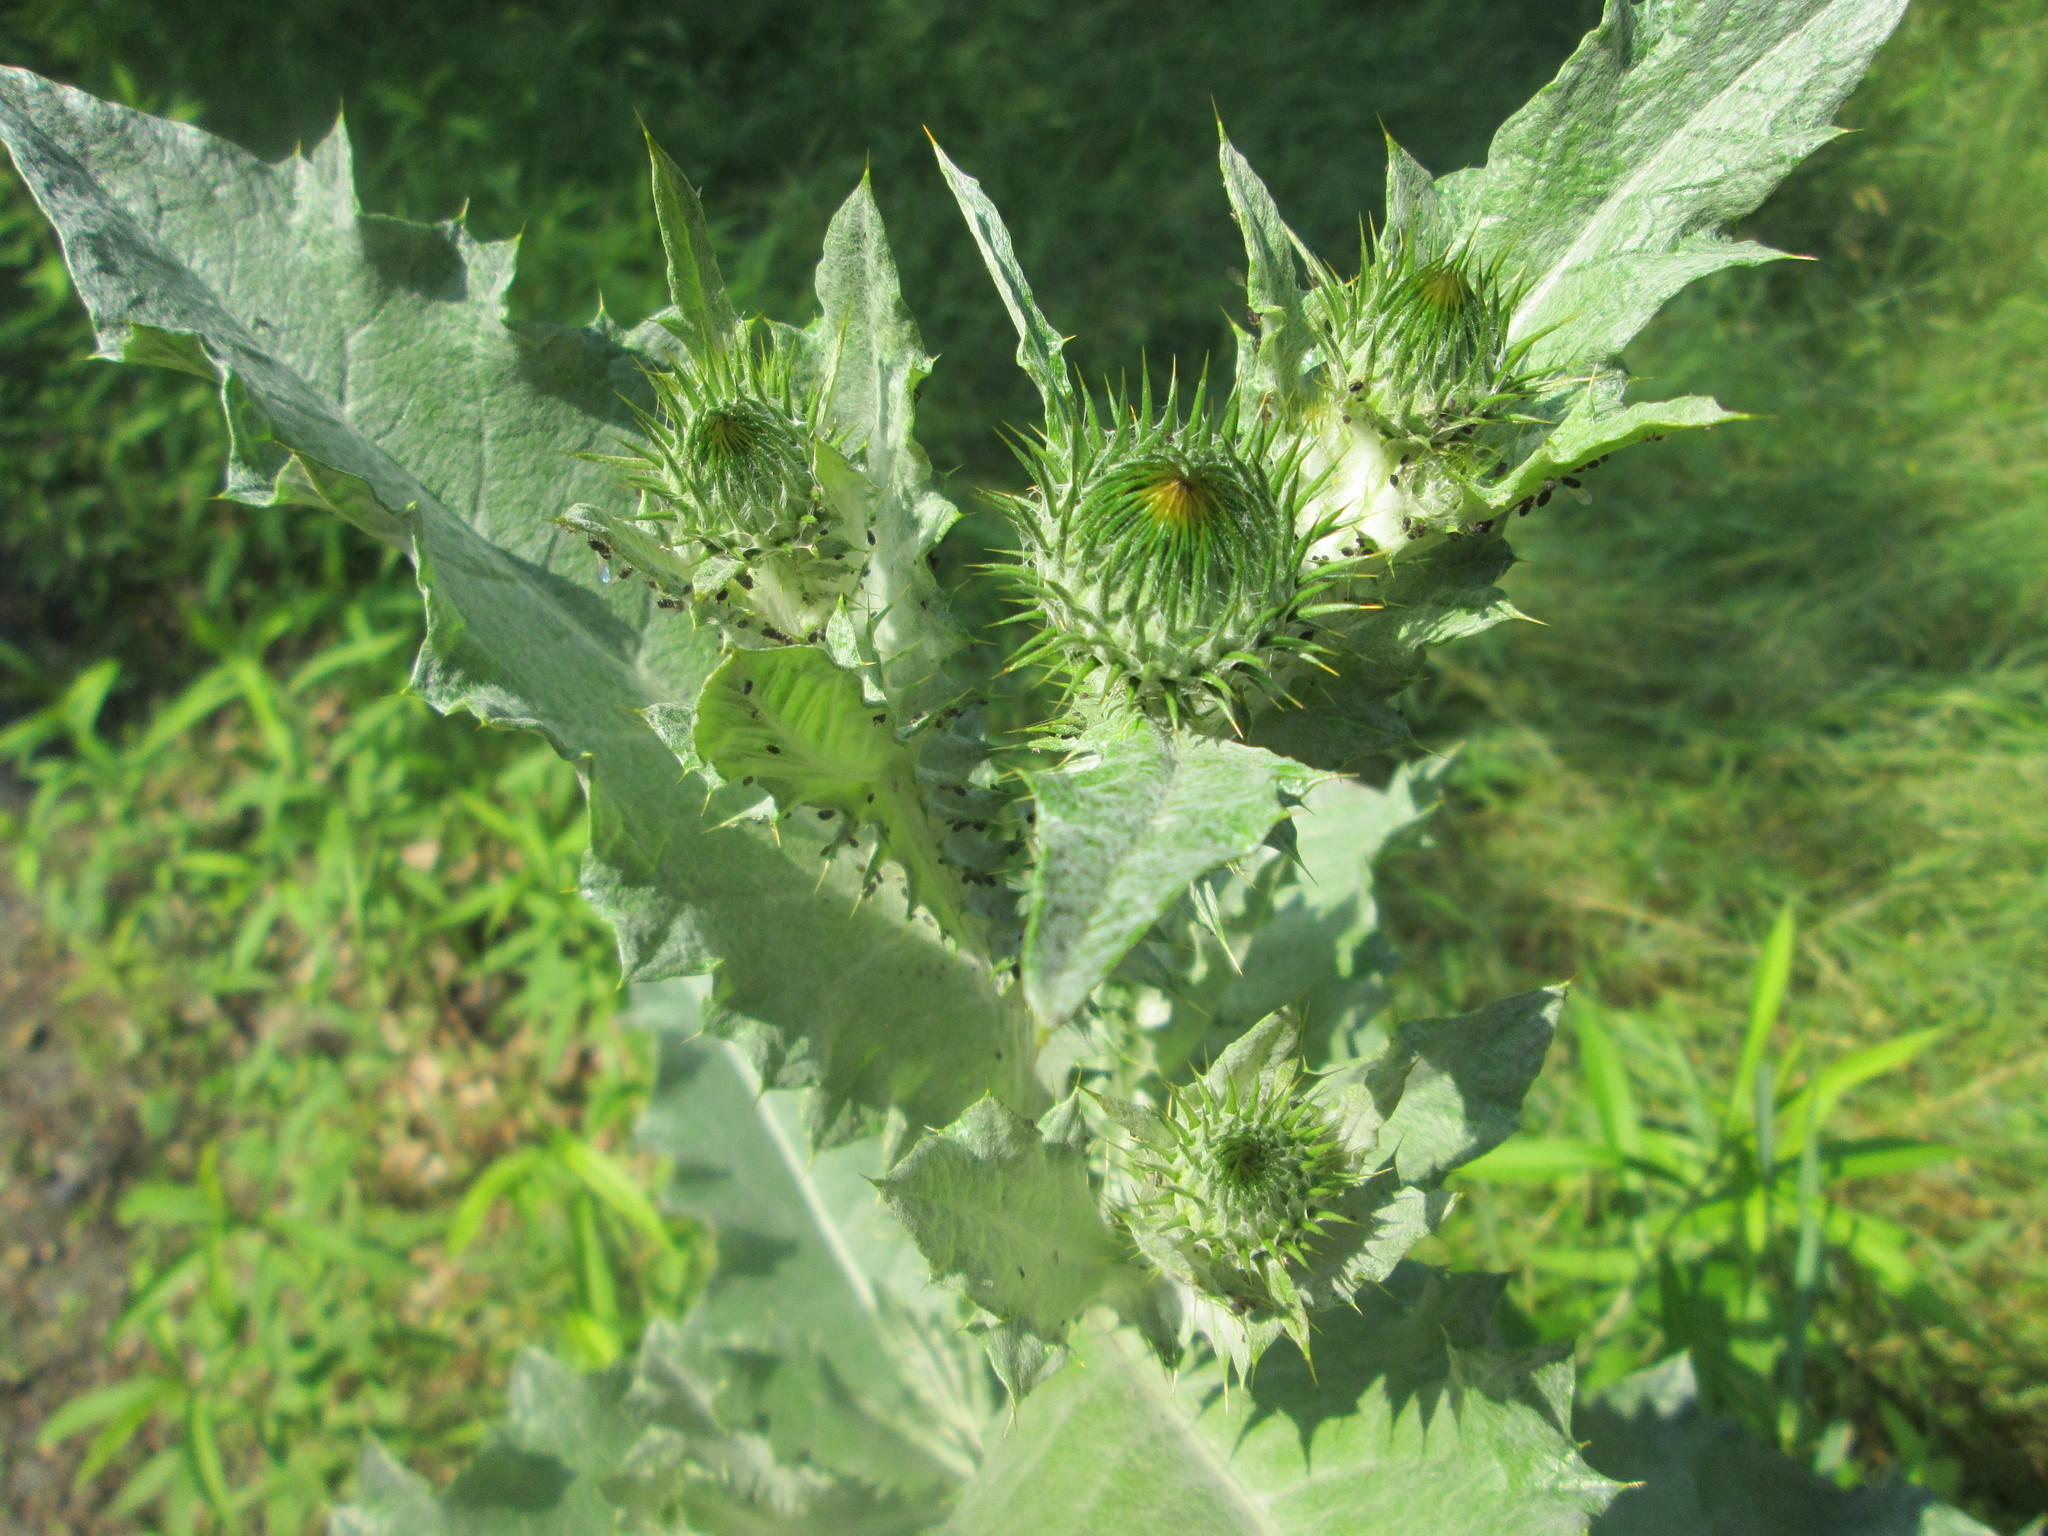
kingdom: Plantae
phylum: Tracheophyta
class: Magnoliopsida
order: Asterales
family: Asteraceae
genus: Onopordum
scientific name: Onopordum acanthium
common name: Scotch thistle
